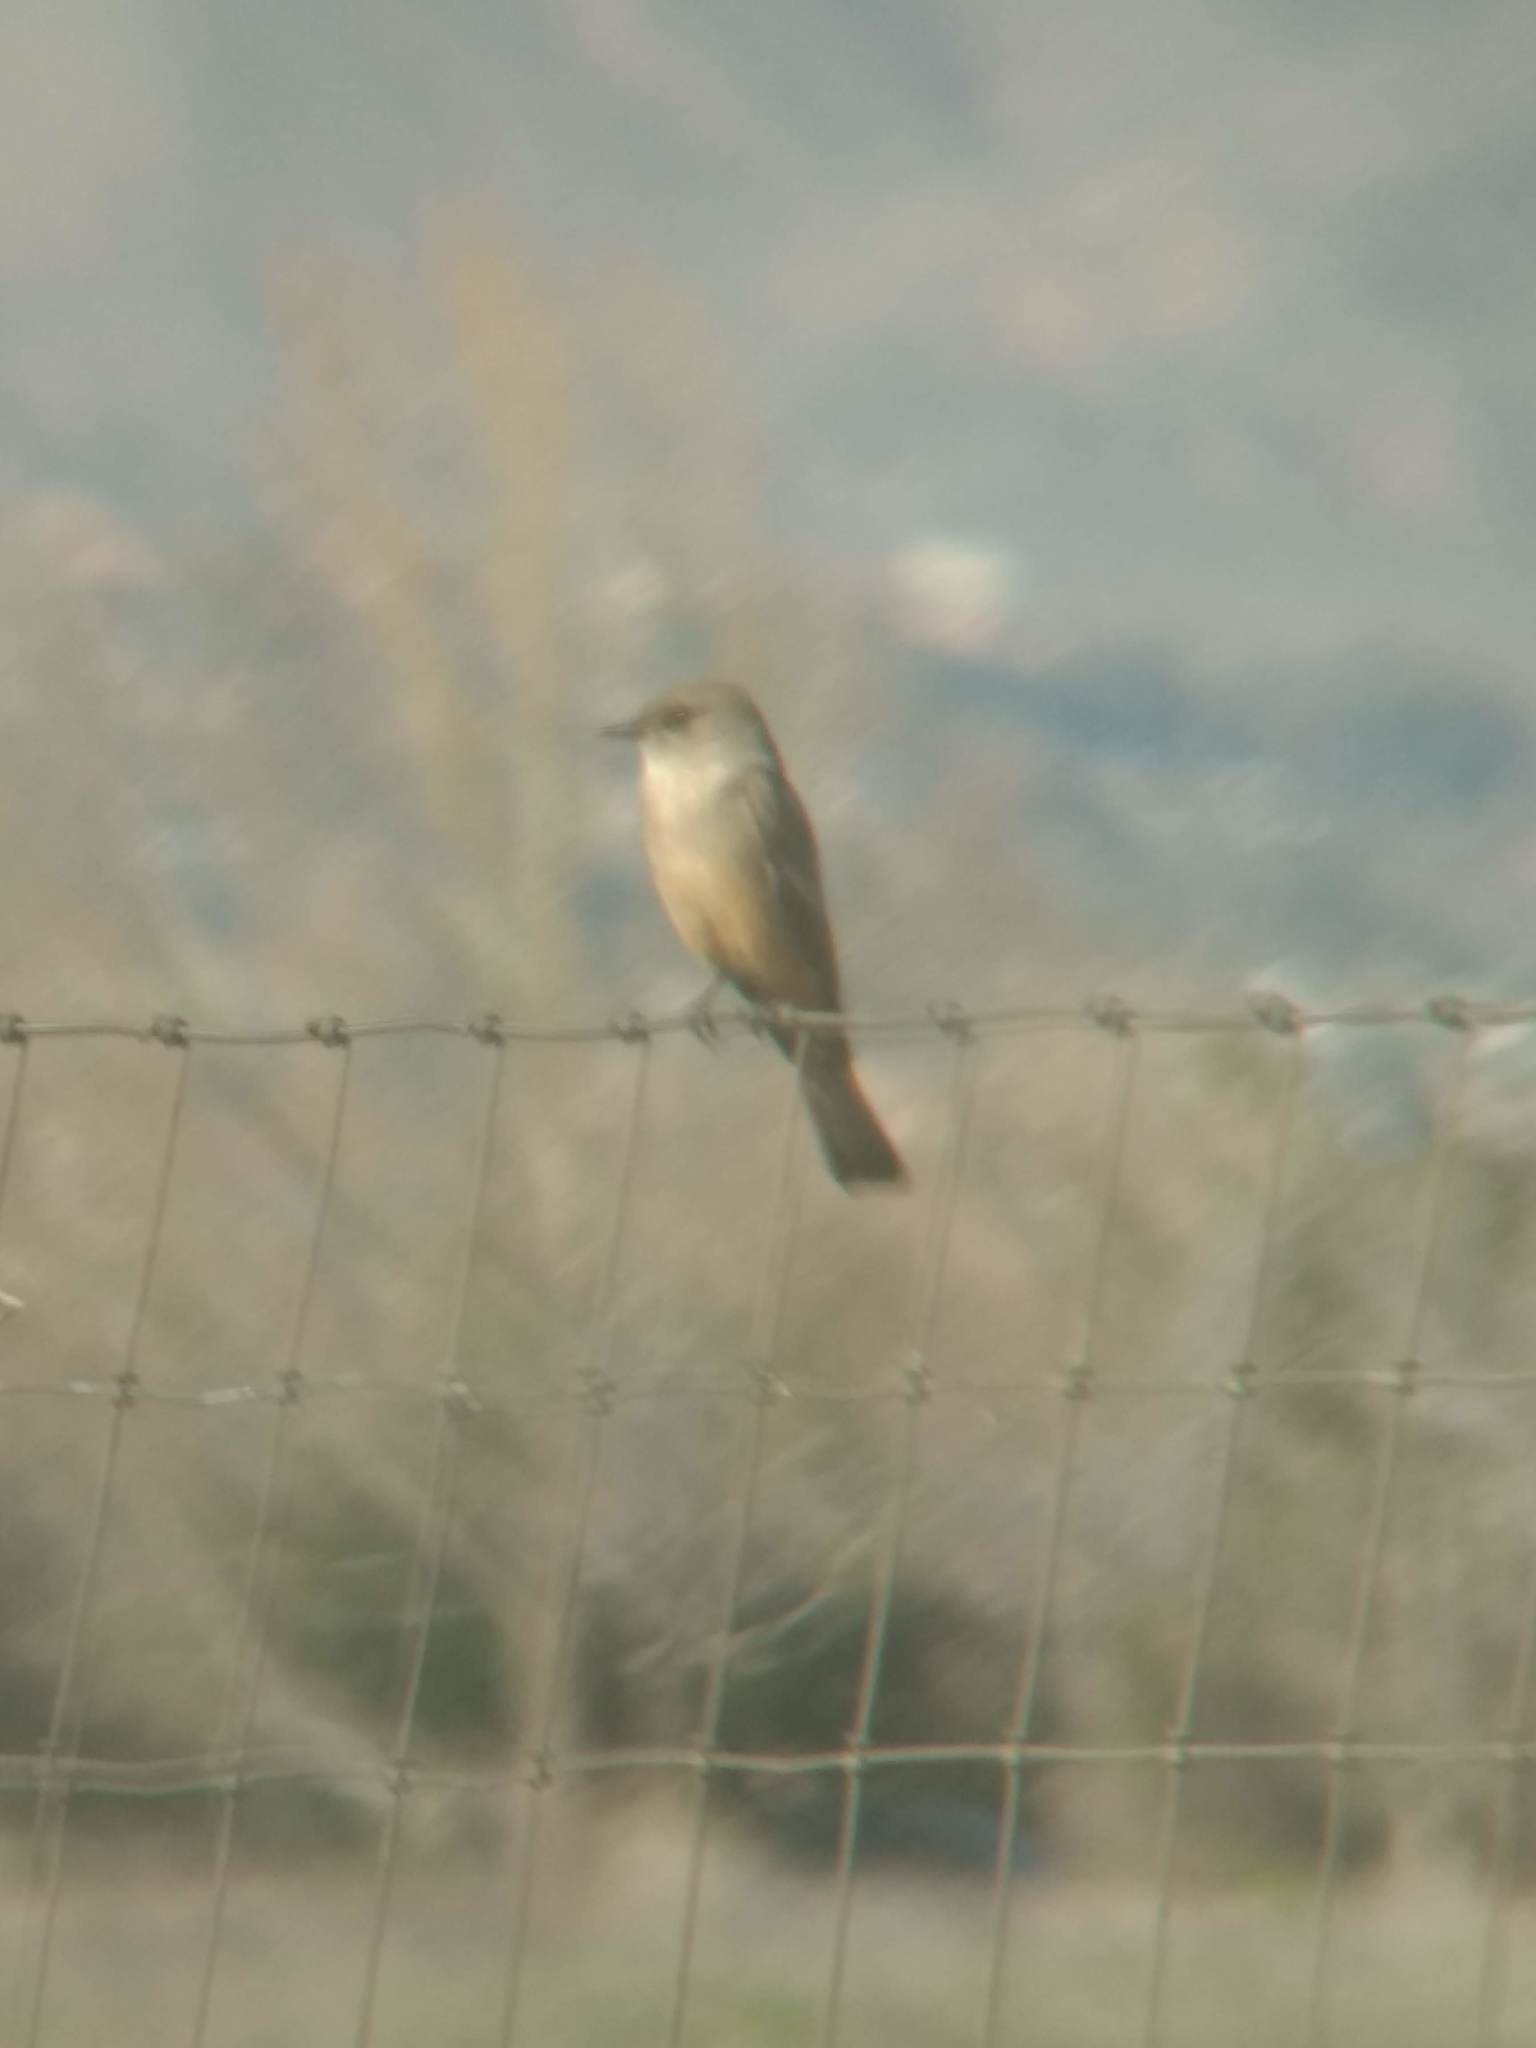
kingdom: Animalia
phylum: Chordata
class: Aves
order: Passeriformes
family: Tyrannidae
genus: Sayornis
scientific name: Sayornis saya
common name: Say's phoebe
